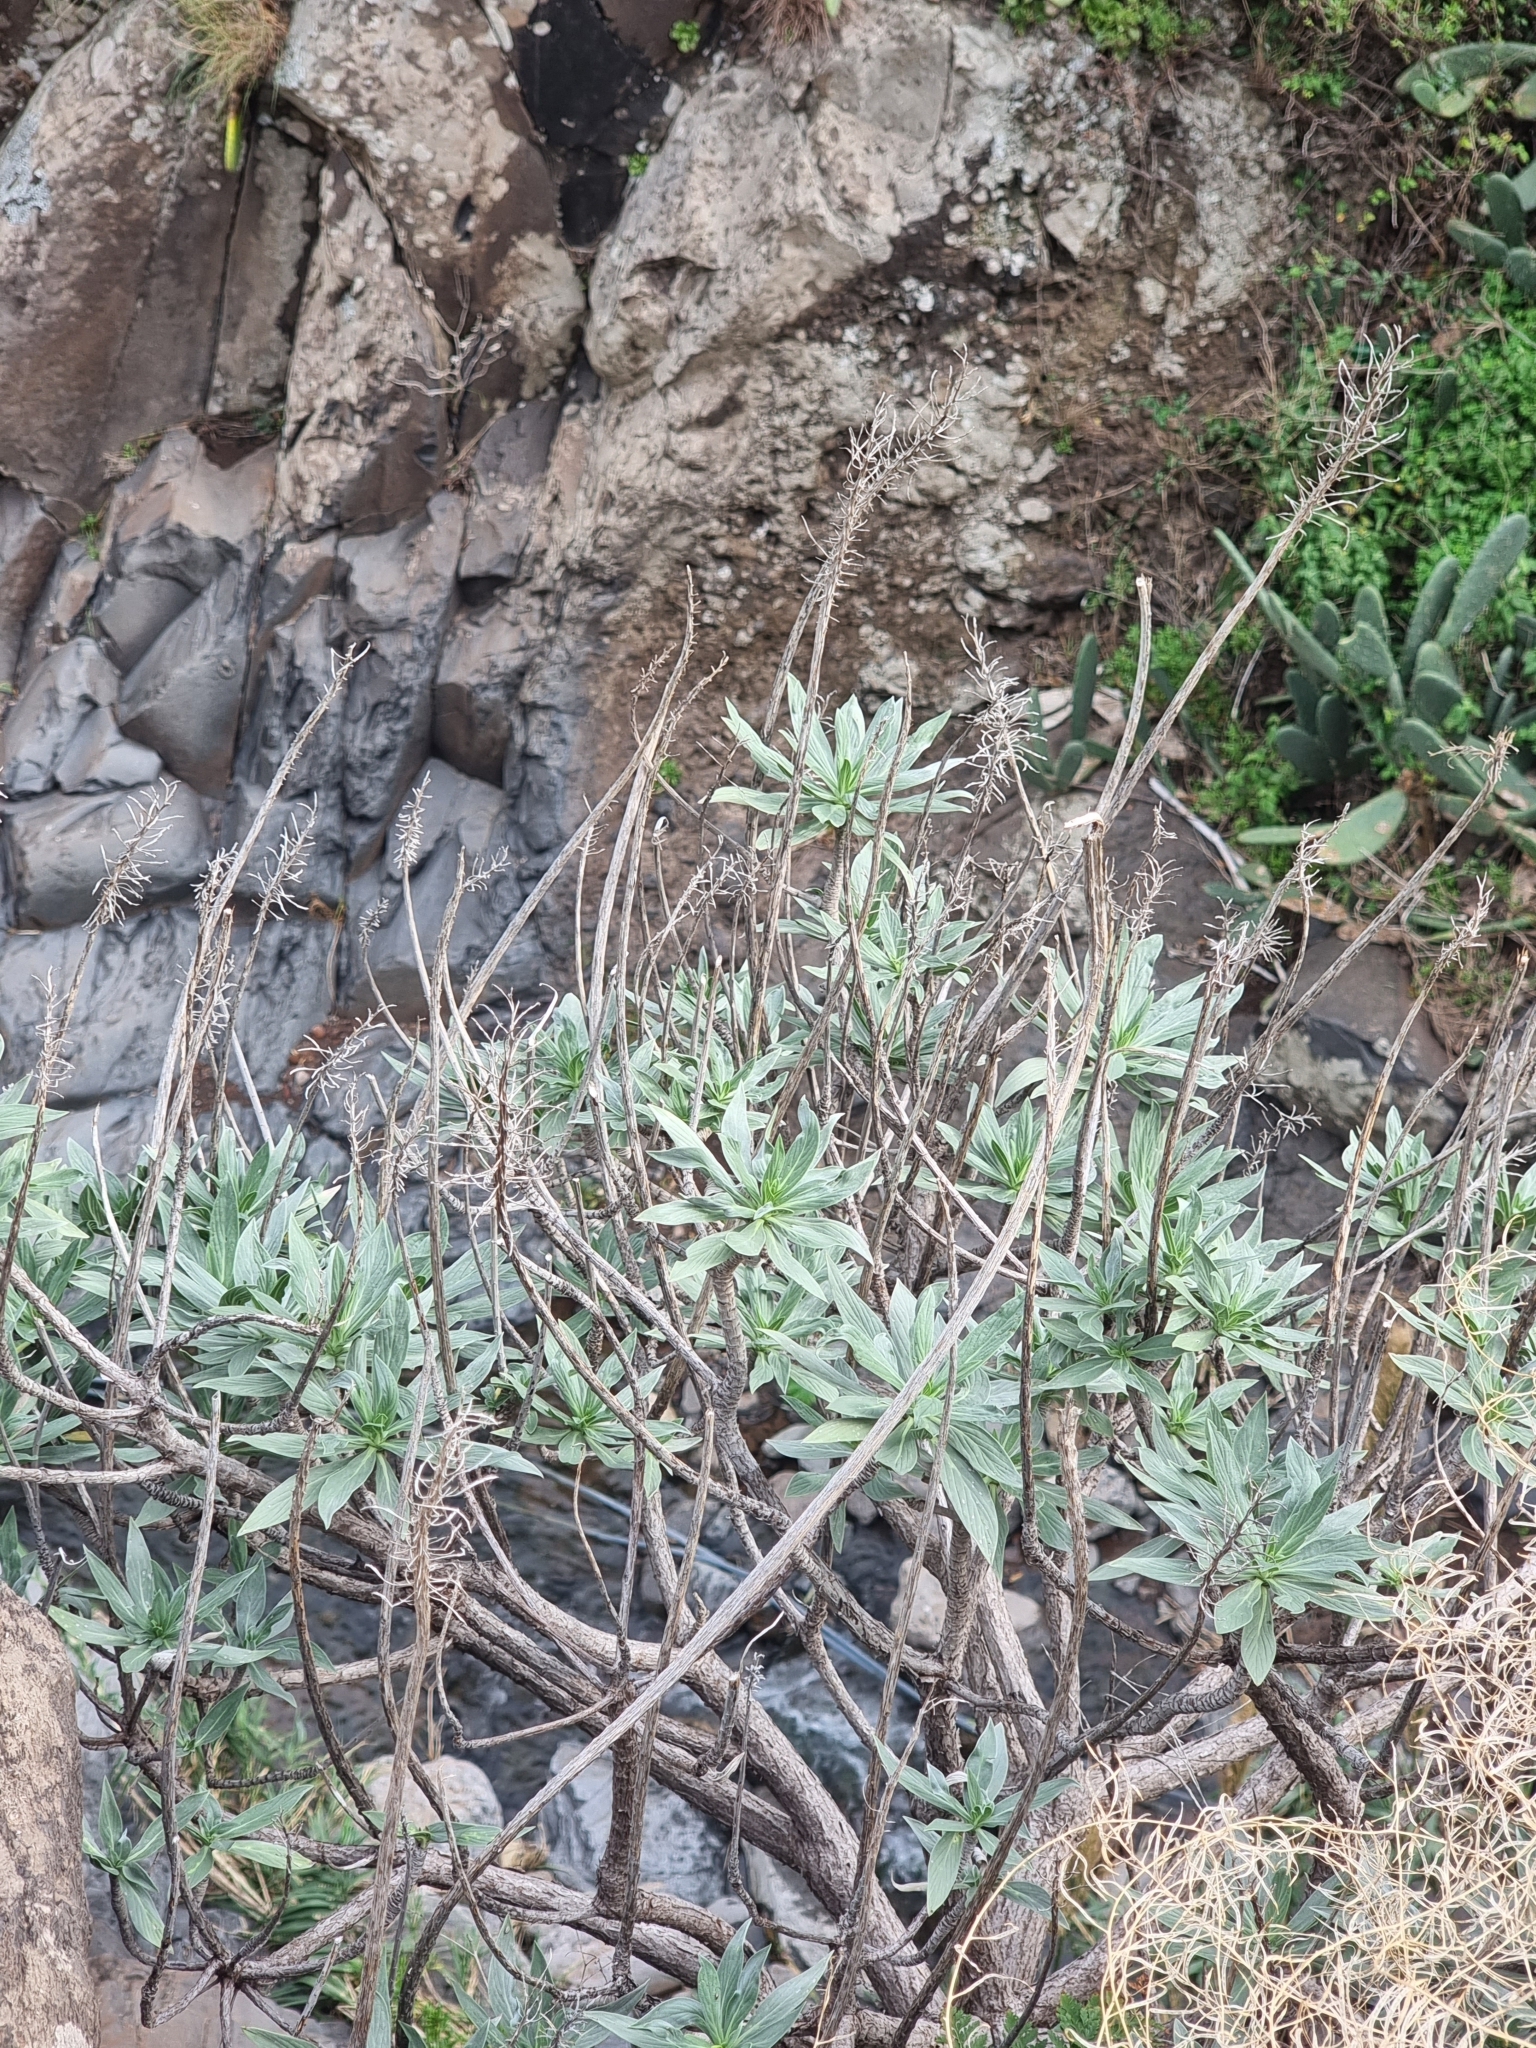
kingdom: Plantae
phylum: Tracheophyta
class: Magnoliopsida
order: Boraginales
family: Boraginaceae
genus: Echium
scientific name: Echium nervosum
